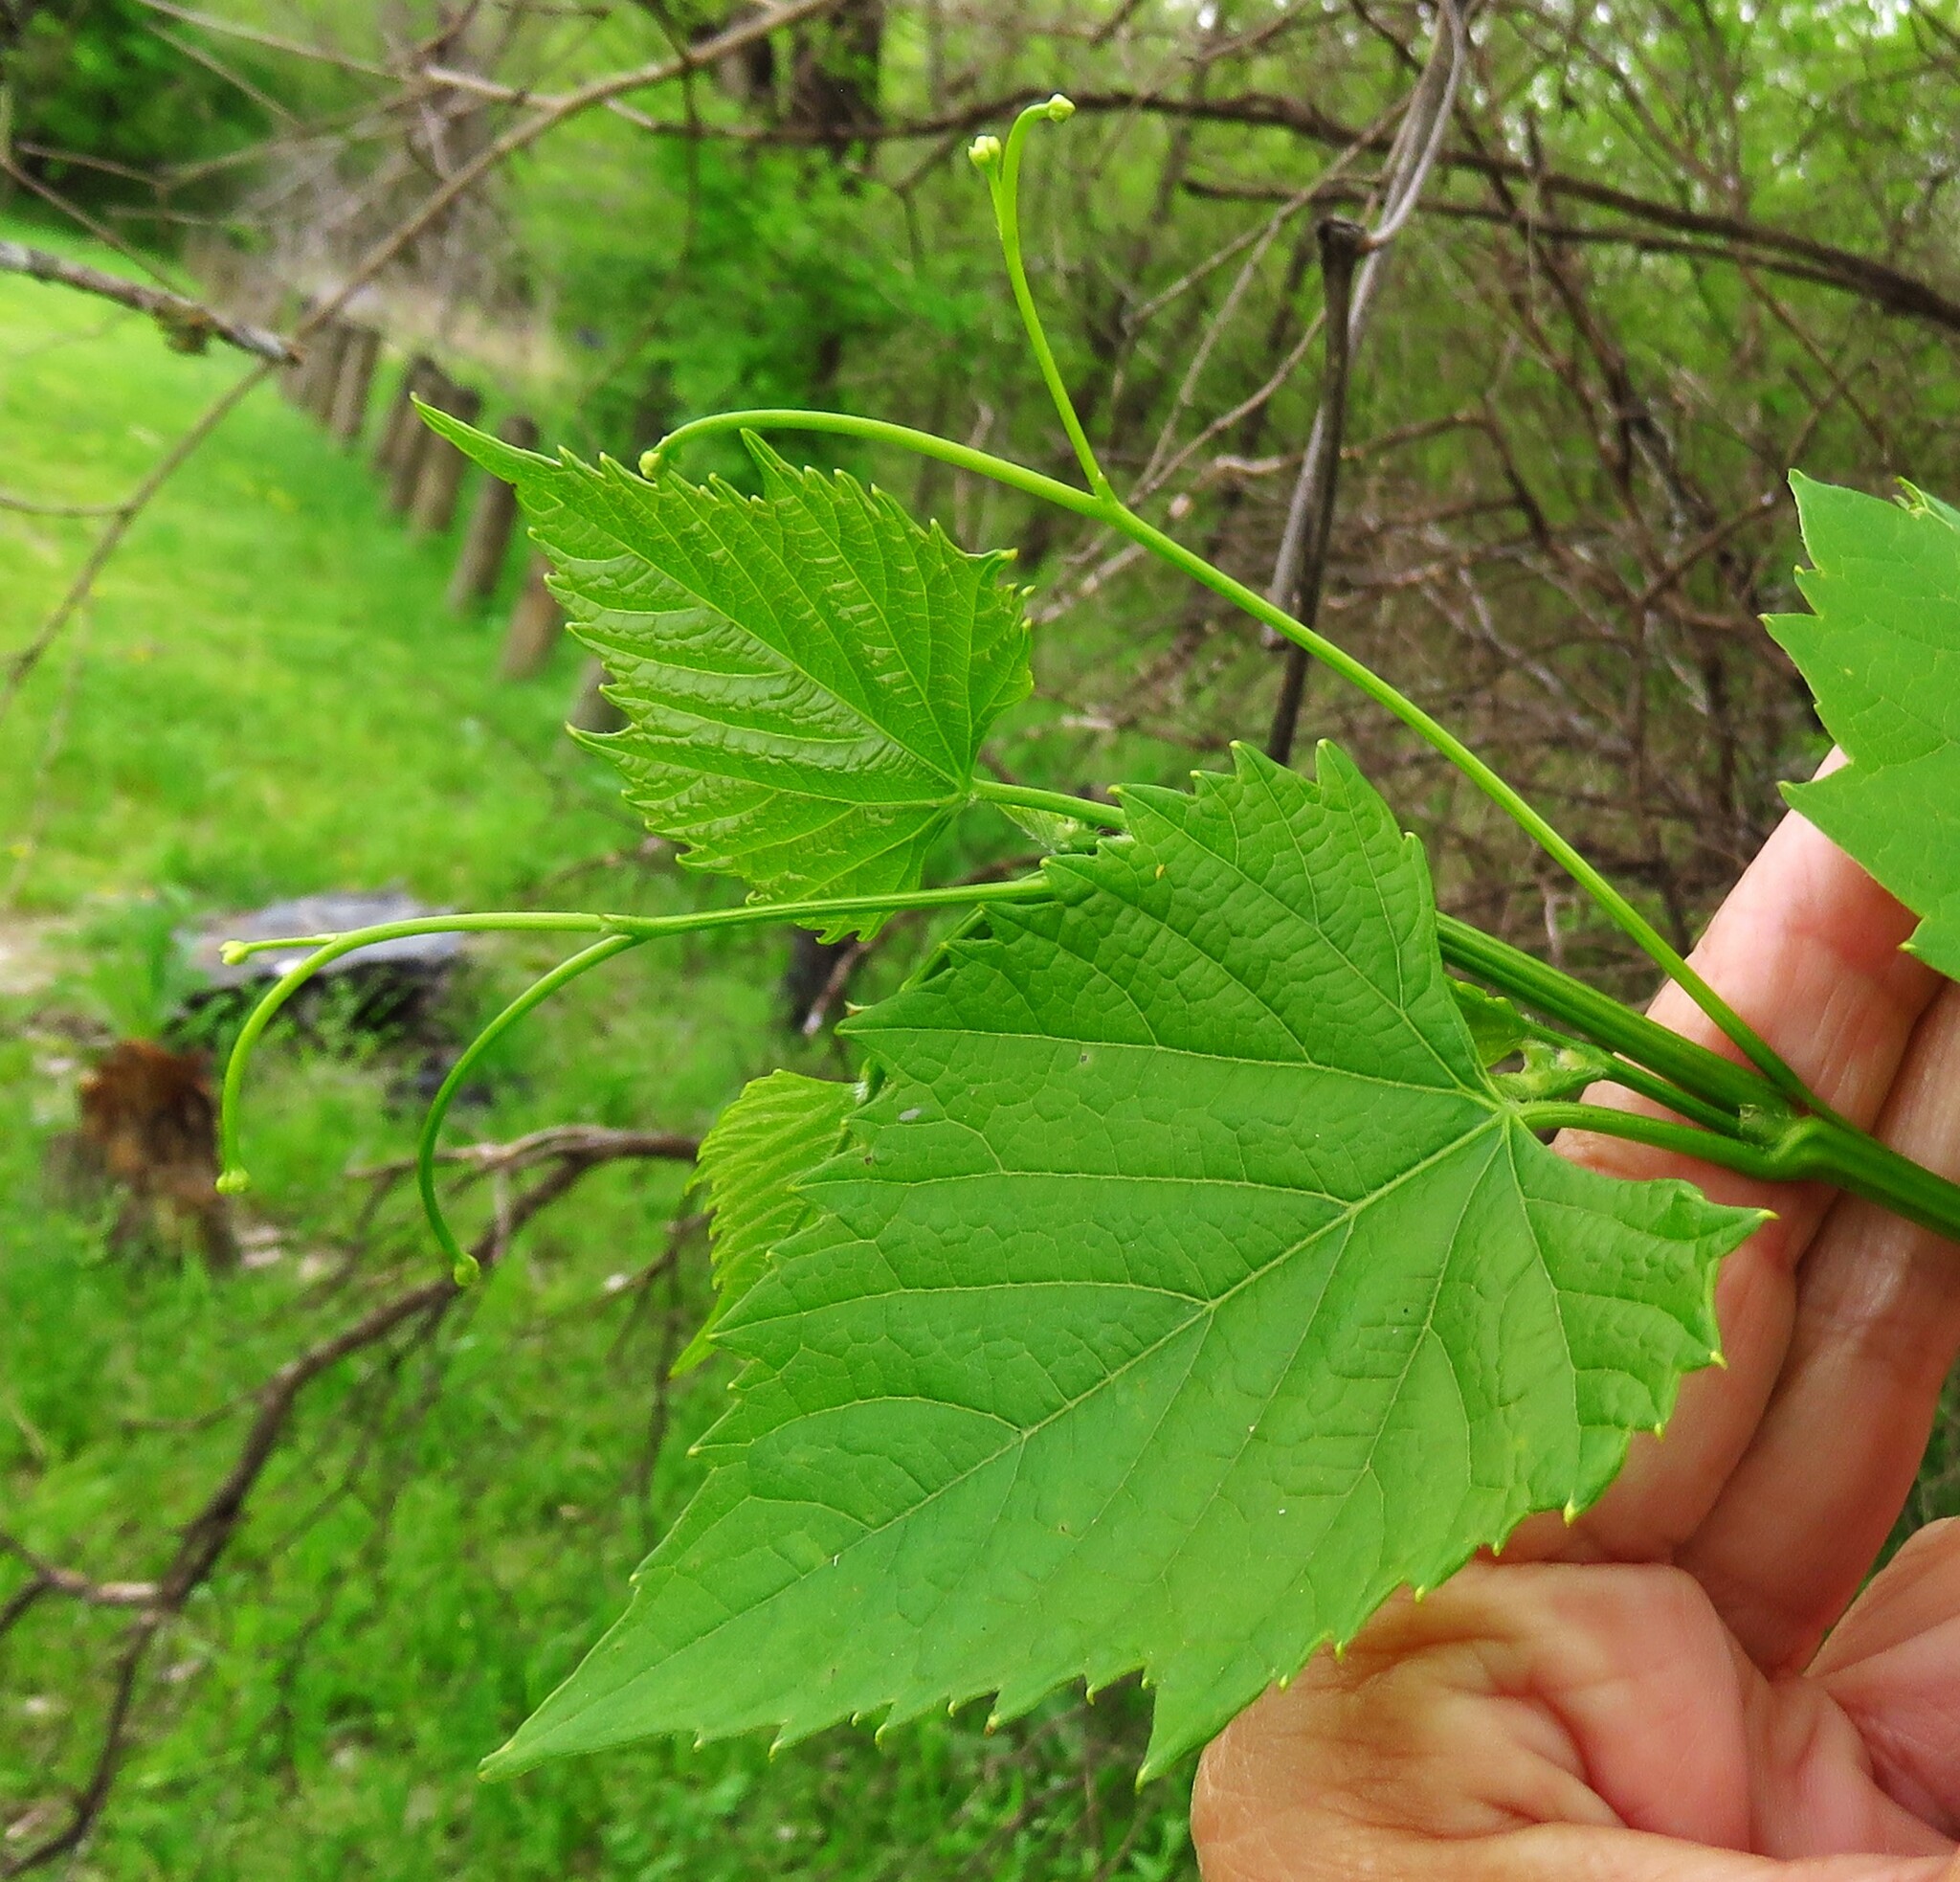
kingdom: Plantae
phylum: Tracheophyta
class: Magnoliopsida
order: Vitales
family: Vitaceae
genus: Vitis
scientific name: Vitis cinerea
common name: Ashy grape
